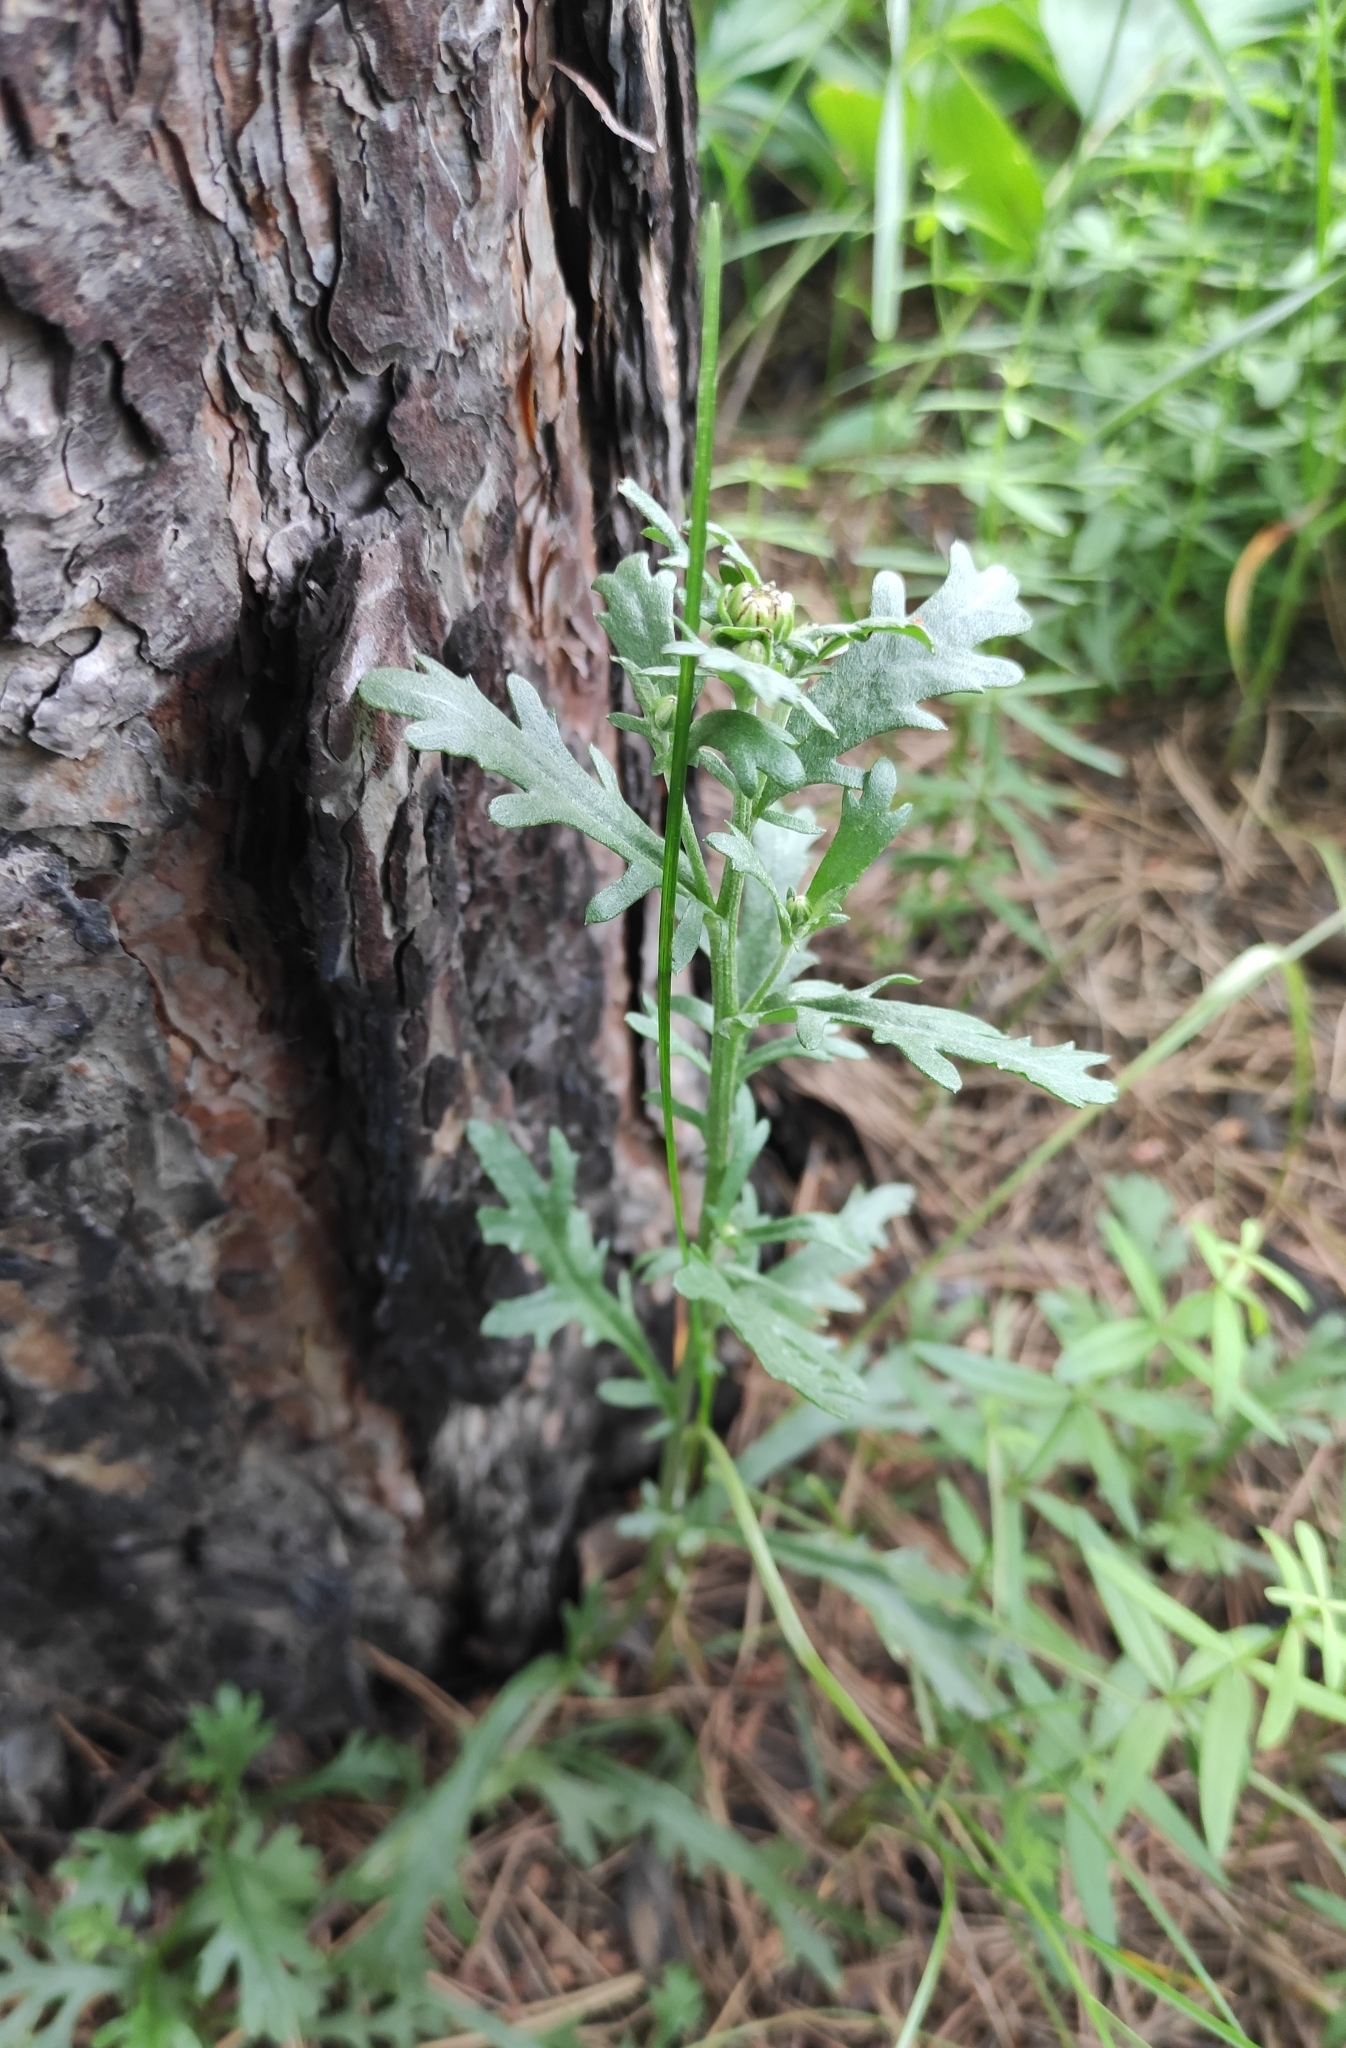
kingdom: Plantae
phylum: Tracheophyta
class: Magnoliopsida
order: Asterales
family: Asteraceae
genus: Chrysanthemum
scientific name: Chrysanthemum zawadzkii
